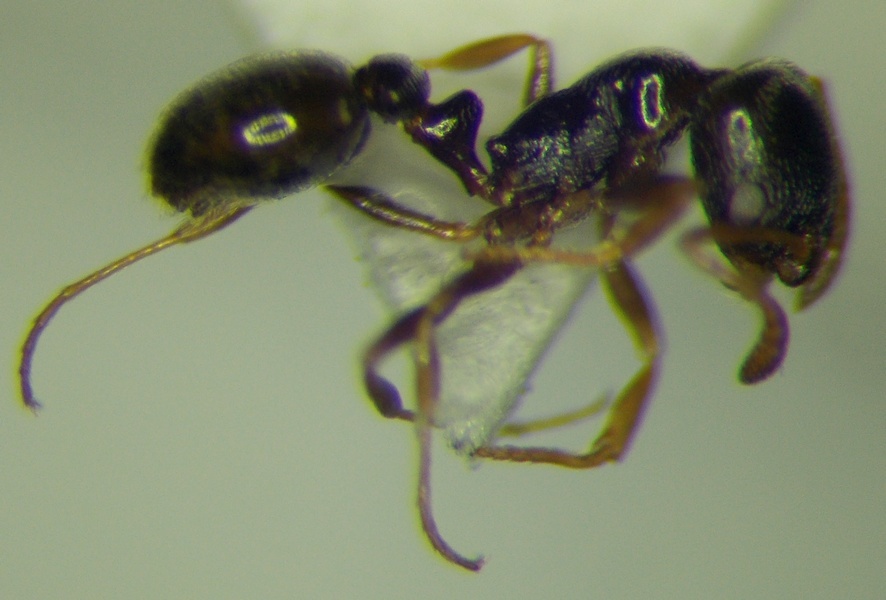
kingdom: Animalia
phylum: Arthropoda
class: Insecta
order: Hymenoptera
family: Formicidae
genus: Cardiocondyla
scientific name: Cardiocondyla stambuloffii
